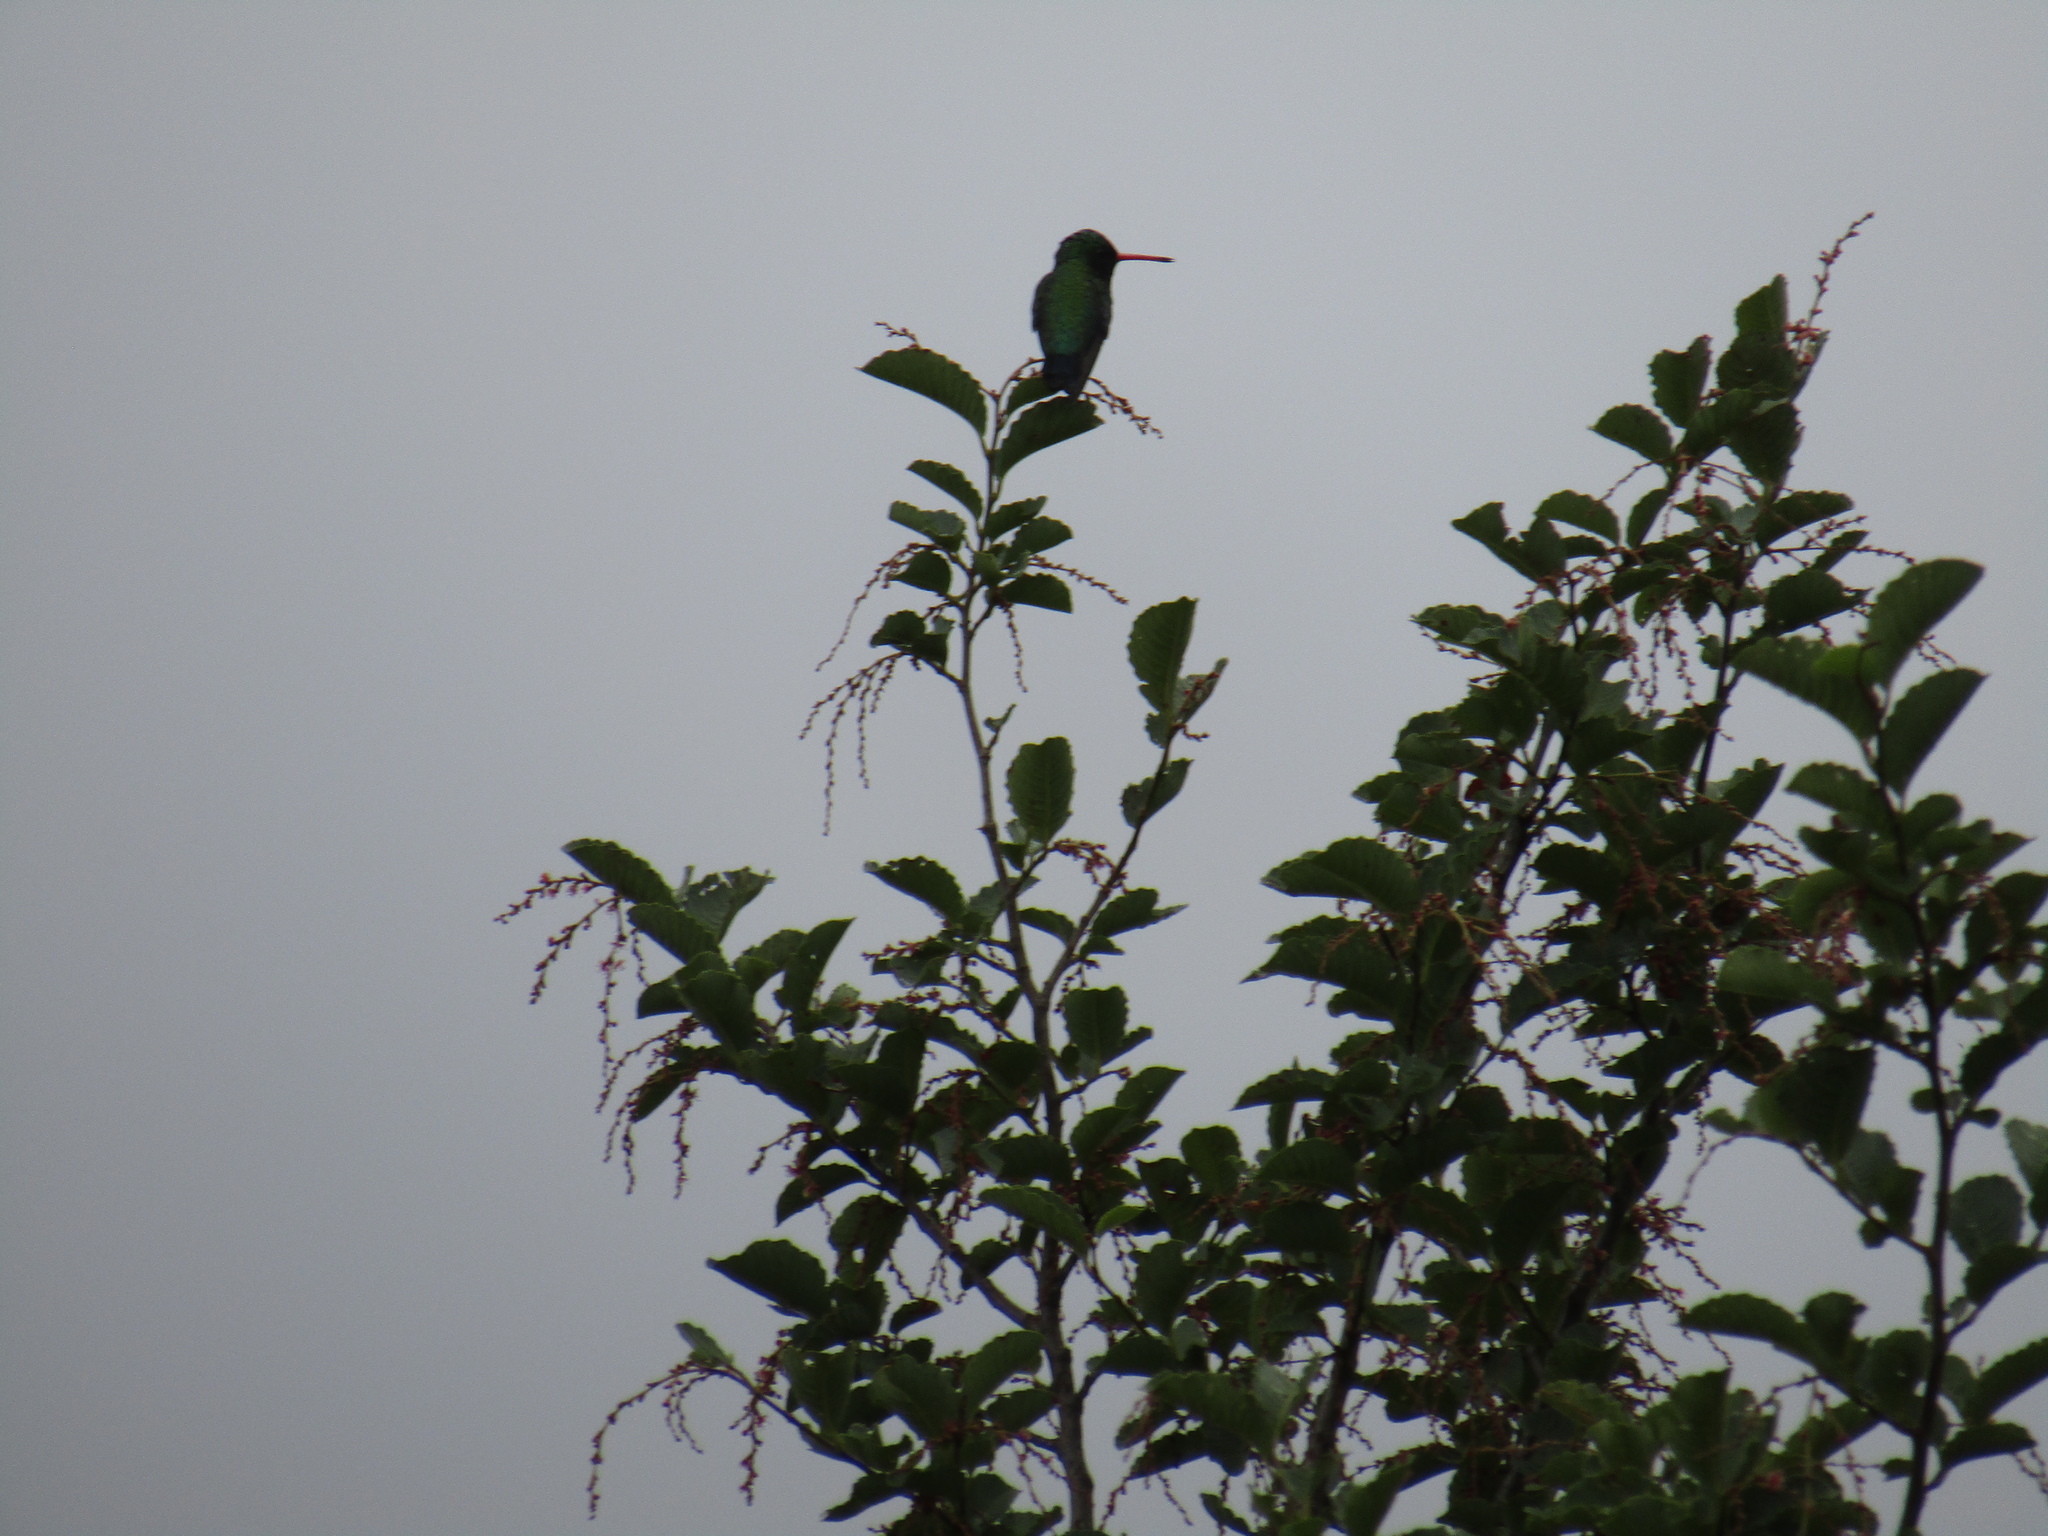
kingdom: Animalia
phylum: Chordata
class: Aves
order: Apodiformes
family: Trochilidae
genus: Chlorostilbon
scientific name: Chlorostilbon lucidus
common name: Glittering-bellied emerald
